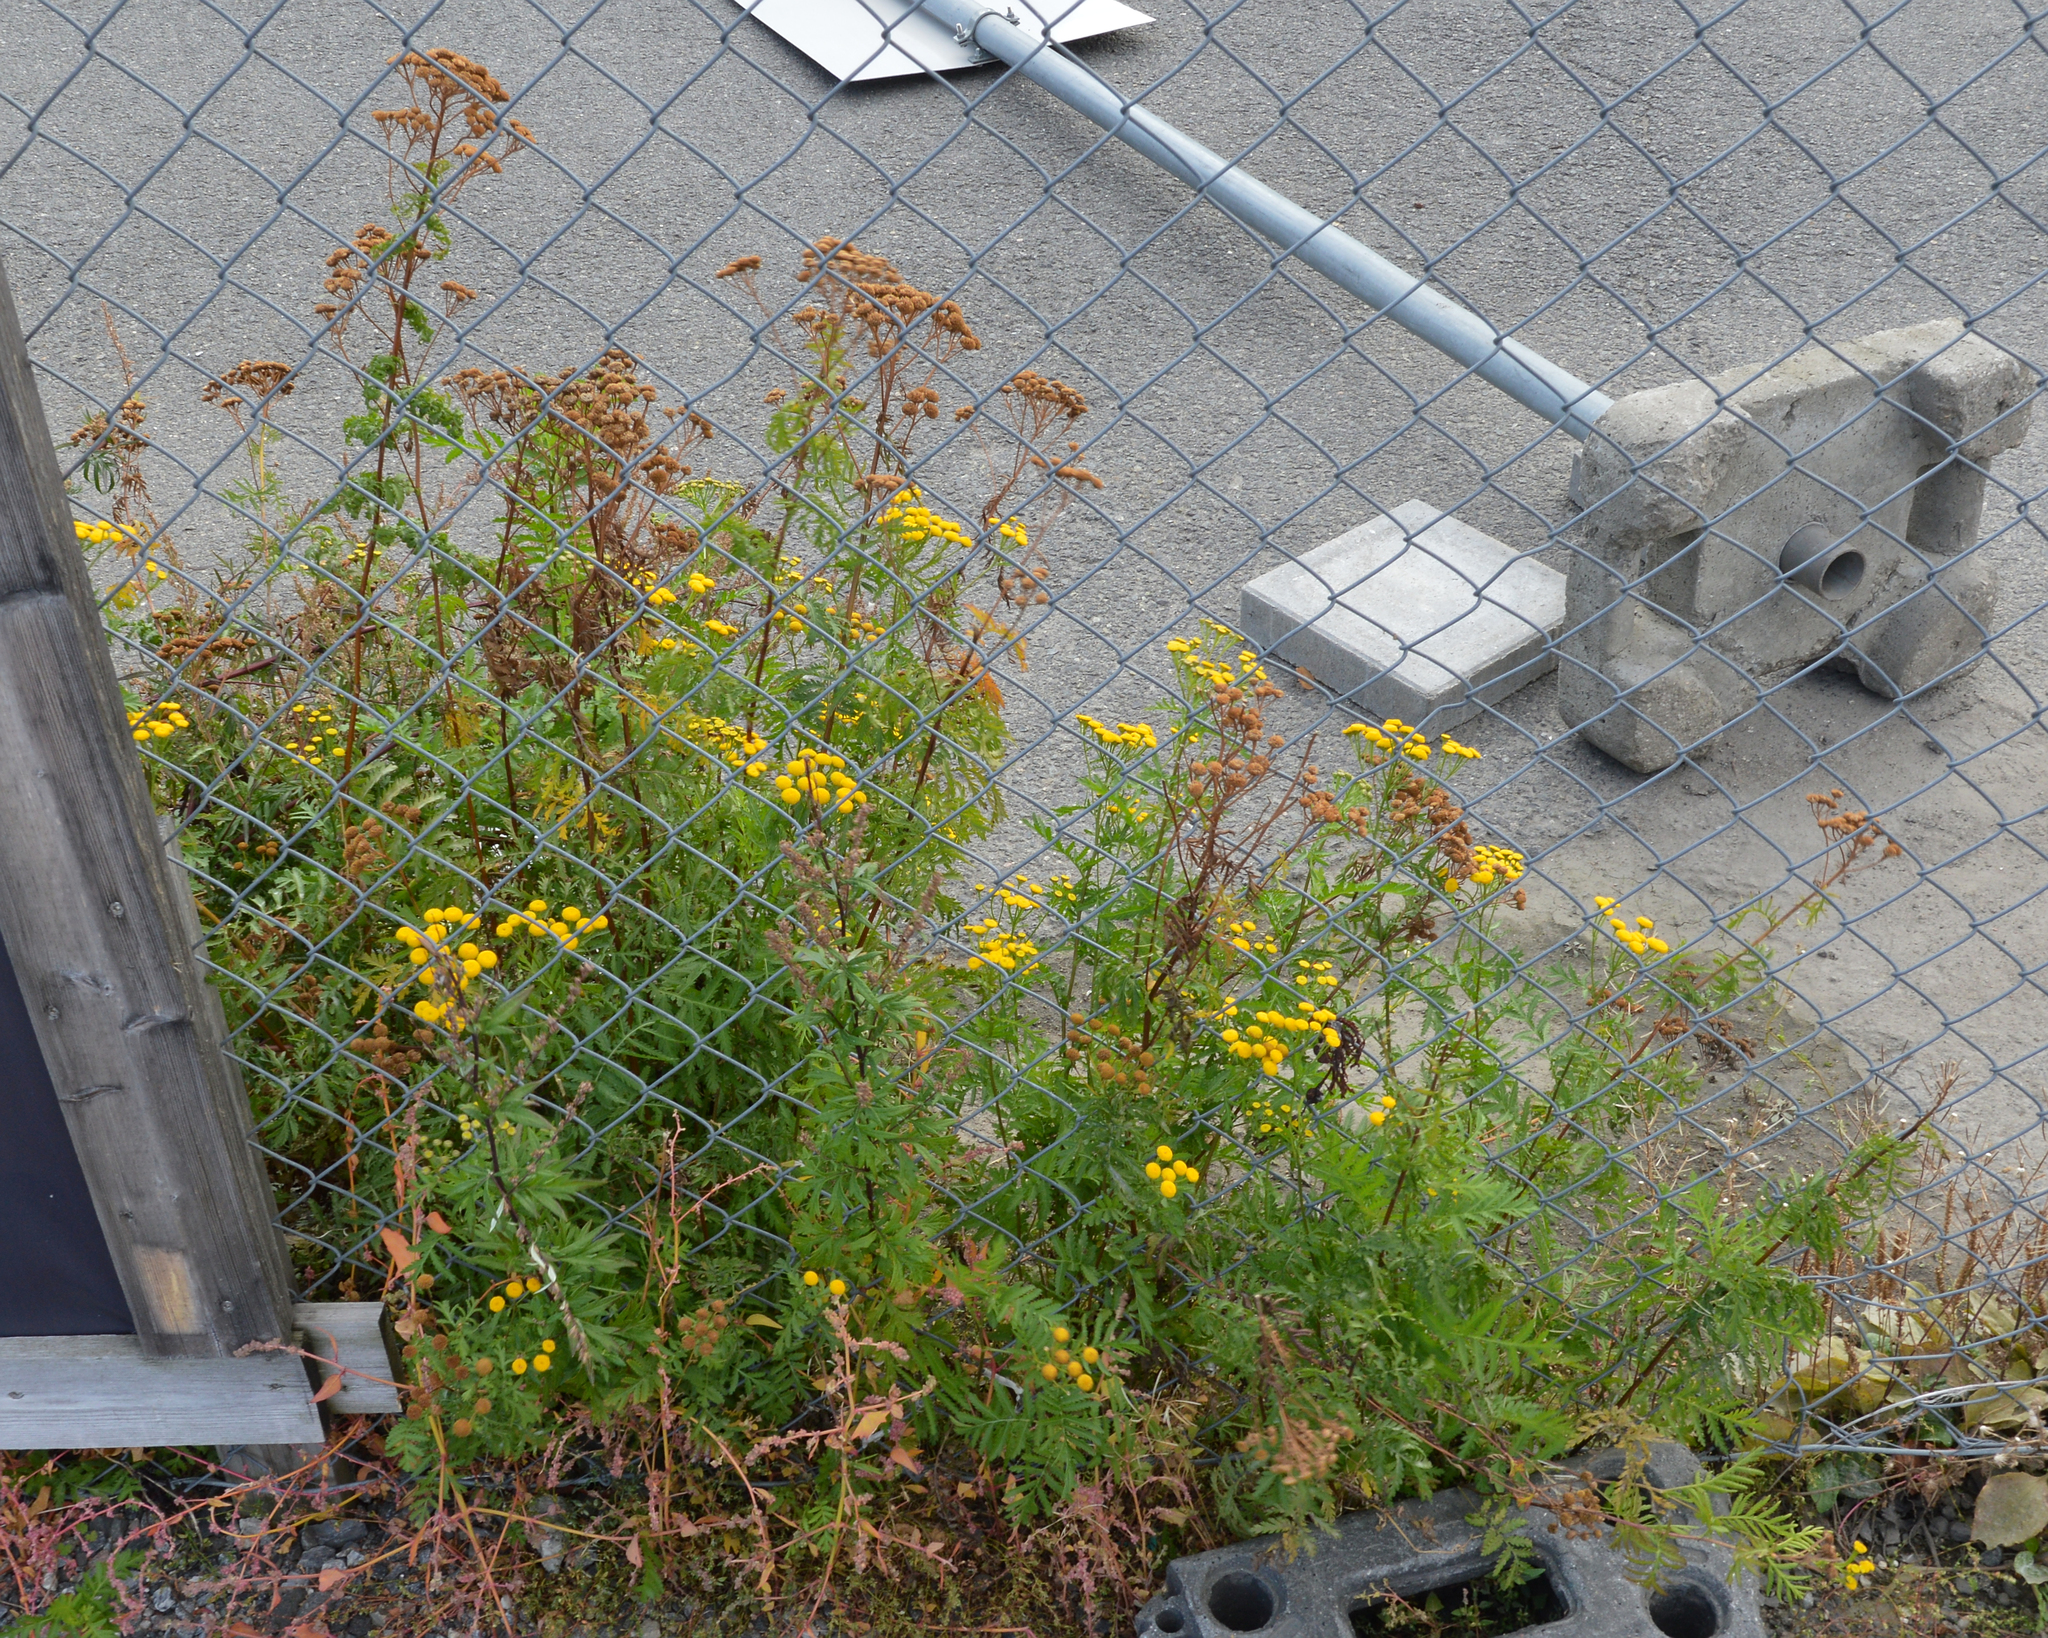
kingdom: Plantae
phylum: Tracheophyta
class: Magnoliopsida
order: Asterales
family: Asteraceae
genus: Tanacetum
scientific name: Tanacetum vulgare
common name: Common tansy
